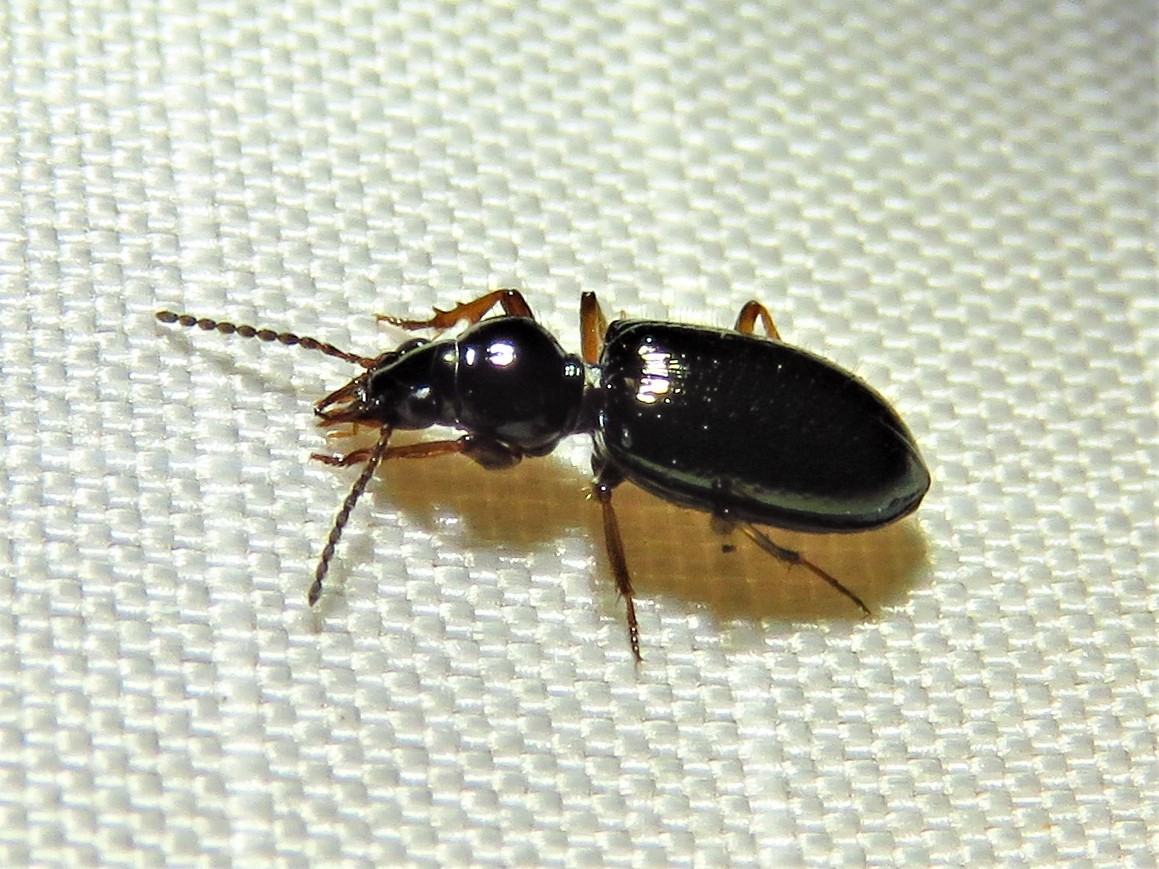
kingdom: Animalia
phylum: Arthropoda
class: Insecta
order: Coleoptera
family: Carabidae
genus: Semiardistomis
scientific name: Semiardistomis viridis
